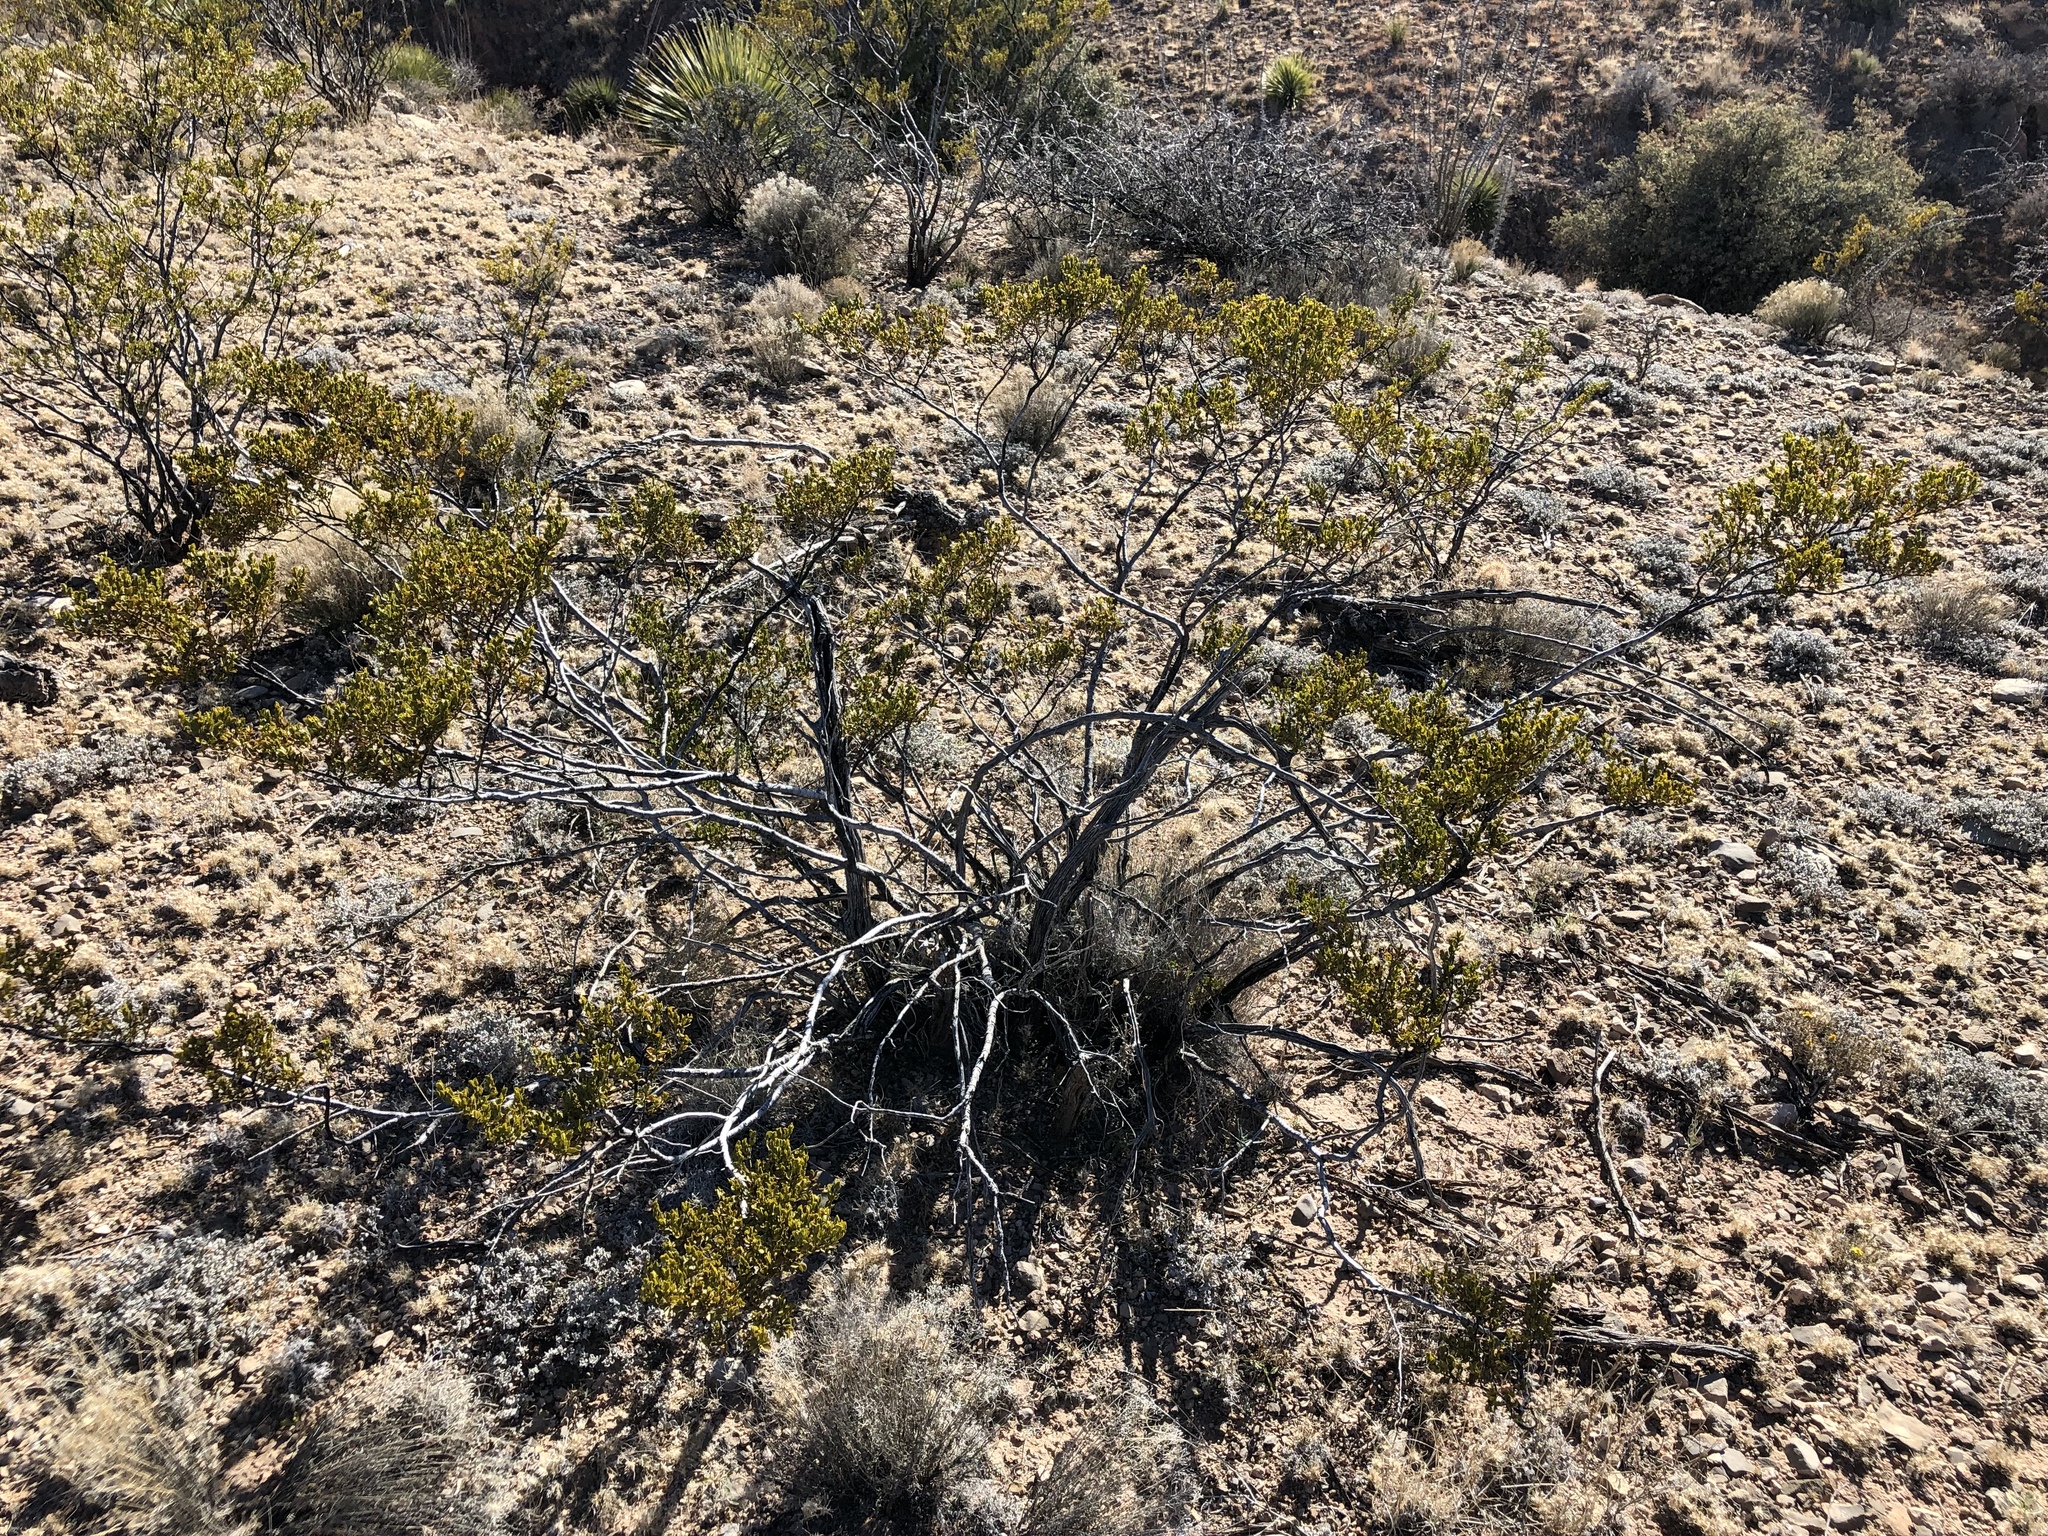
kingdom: Plantae
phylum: Tracheophyta
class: Magnoliopsida
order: Zygophyllales
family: Zygophyllaceae
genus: Larrea
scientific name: Larrea tridentata
